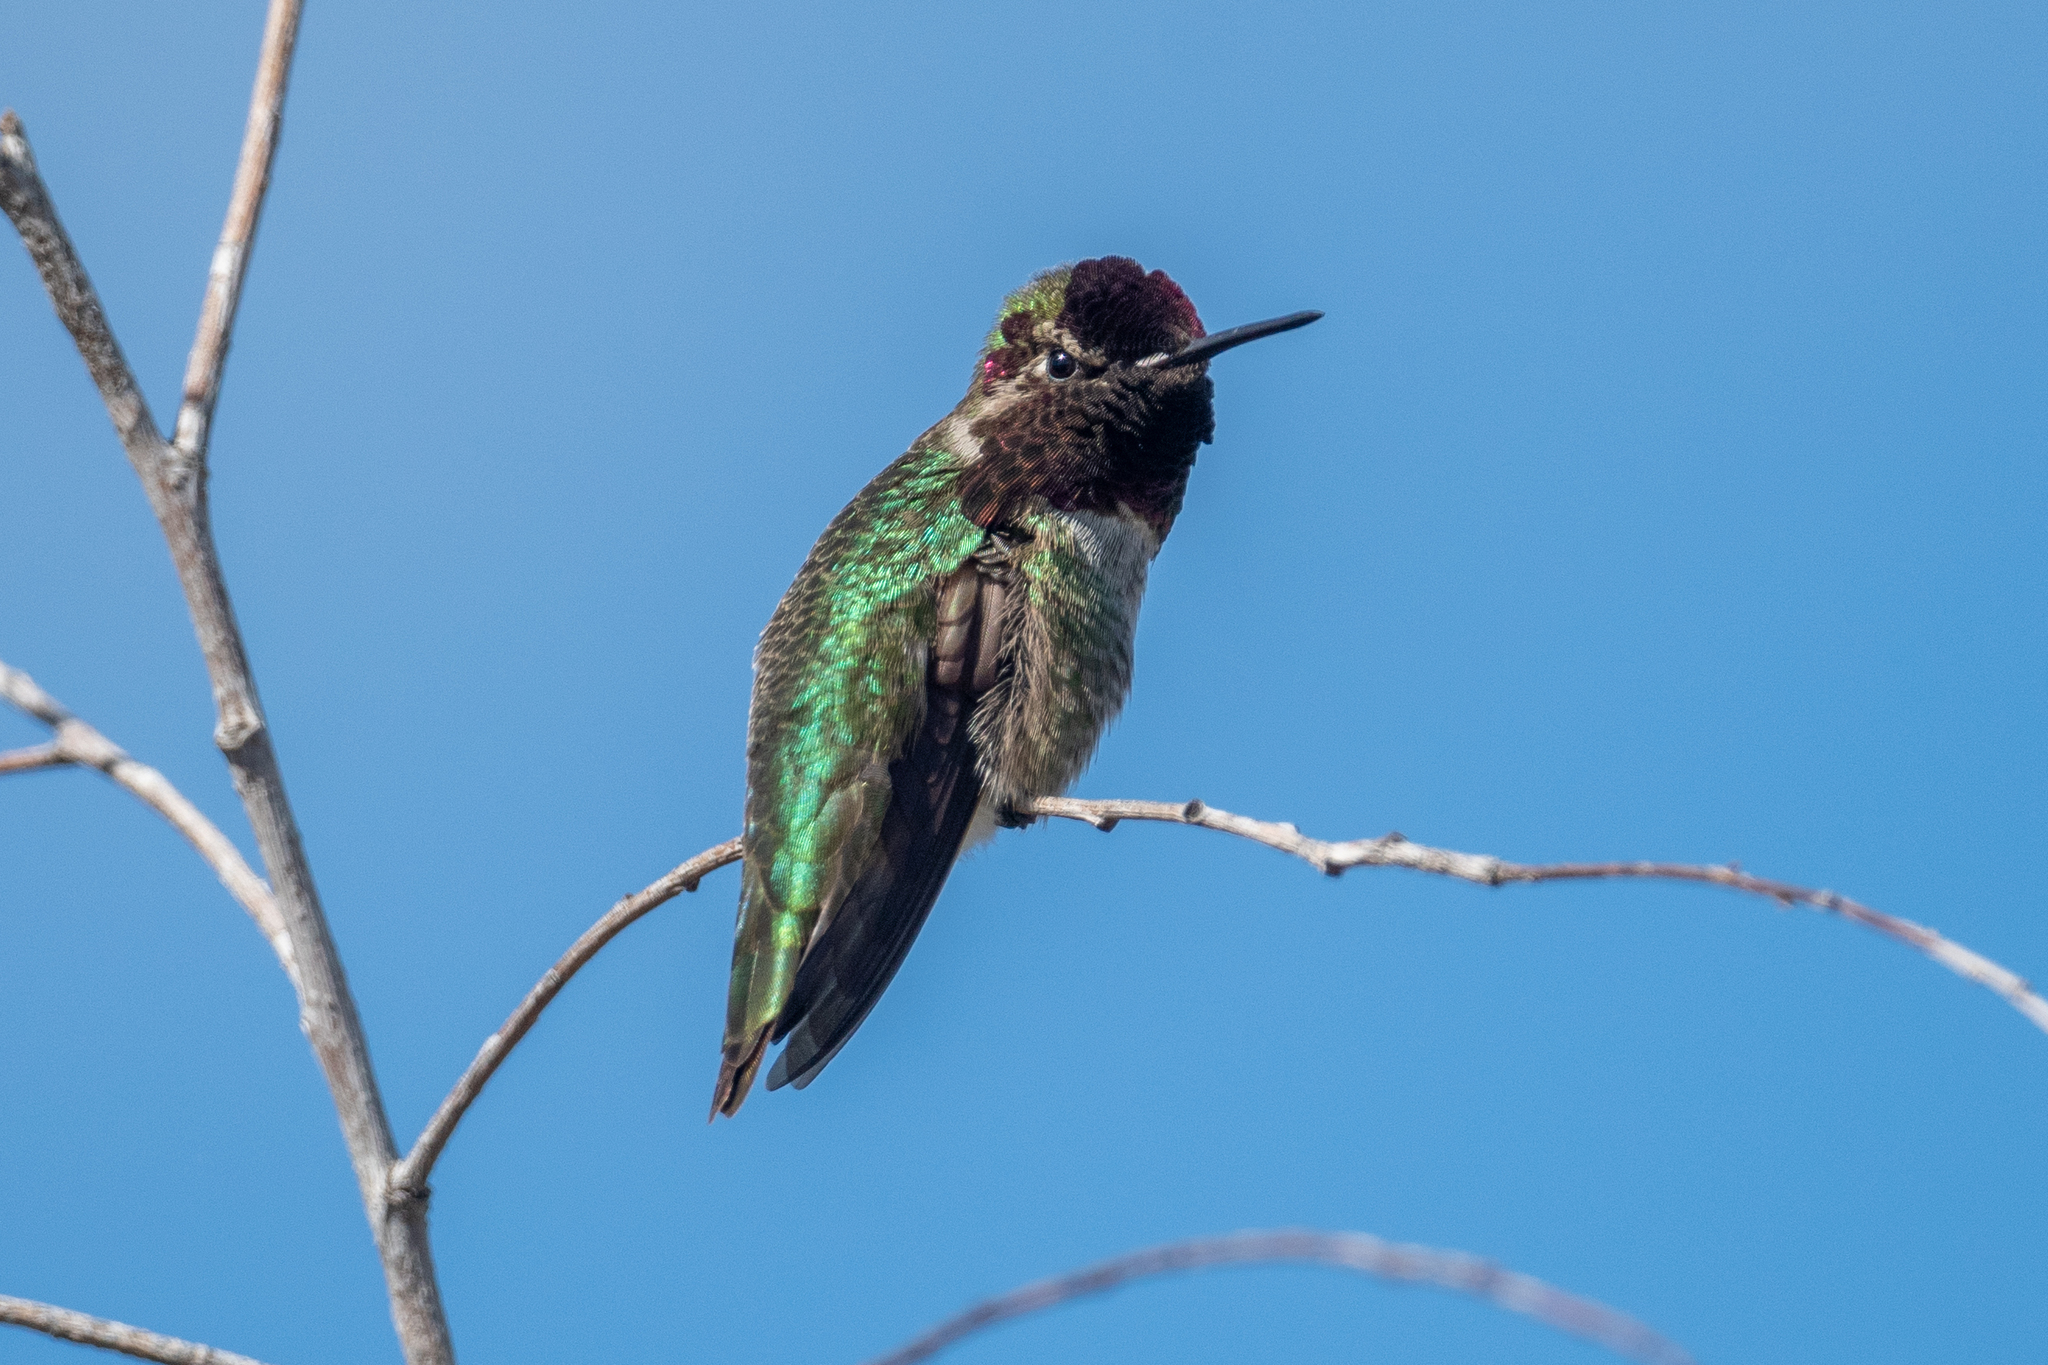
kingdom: Animalia
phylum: Chordata
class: Aves
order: Apodiformes
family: Trochilidae
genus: Calypte
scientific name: Calypte anna
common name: Anna's hummingbird
